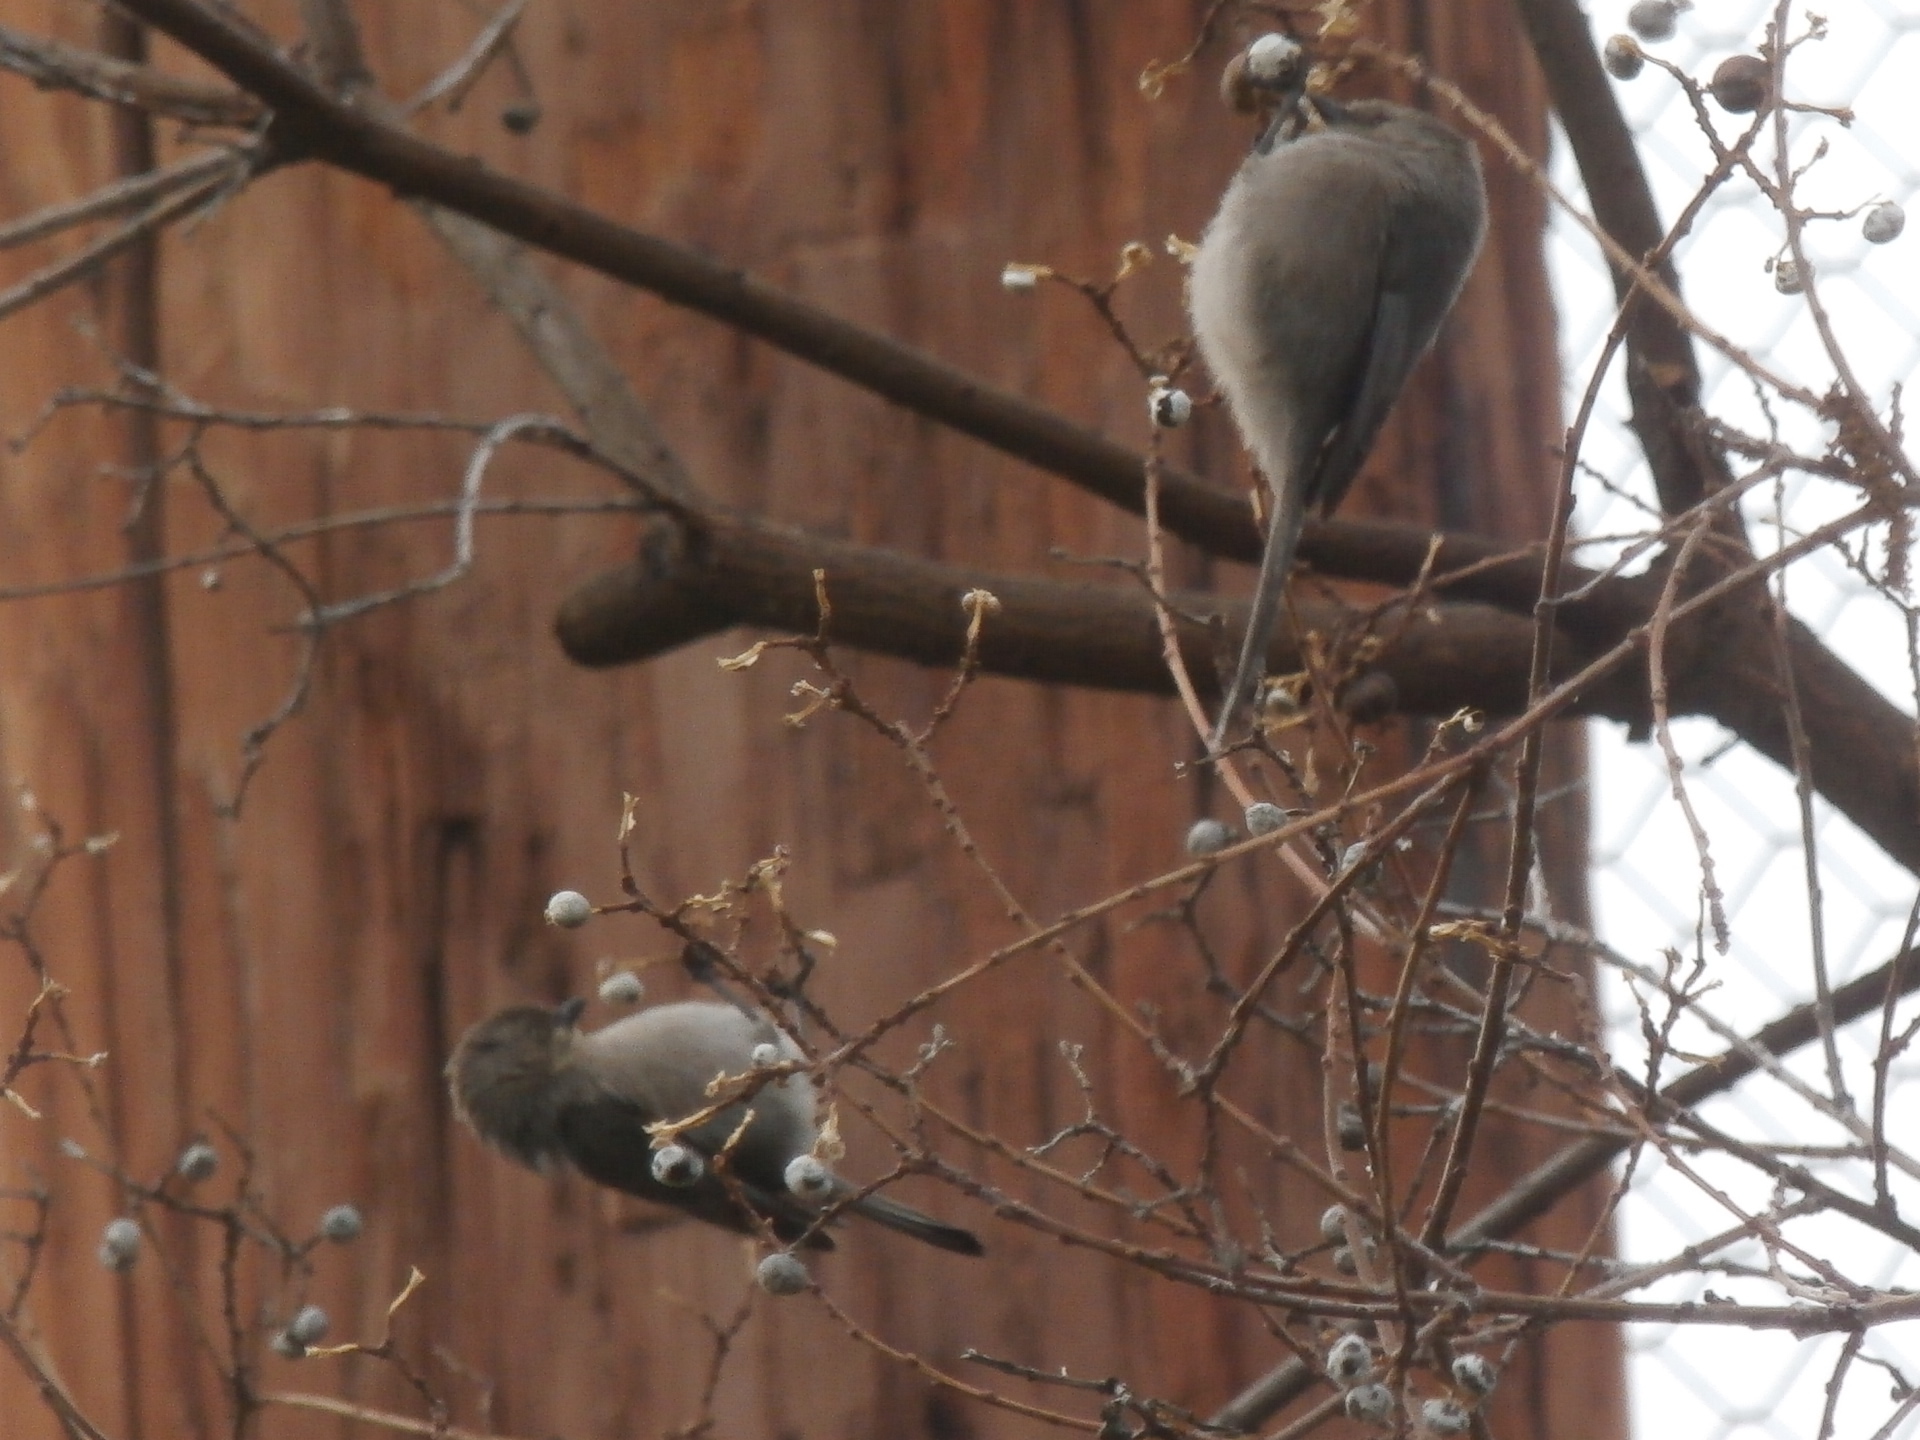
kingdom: Animalia
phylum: Chordata
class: Aves
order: Passeriformes
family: Aegithalidae
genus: Psaltriparus
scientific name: Psaltriparus minimus
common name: American bushtit
